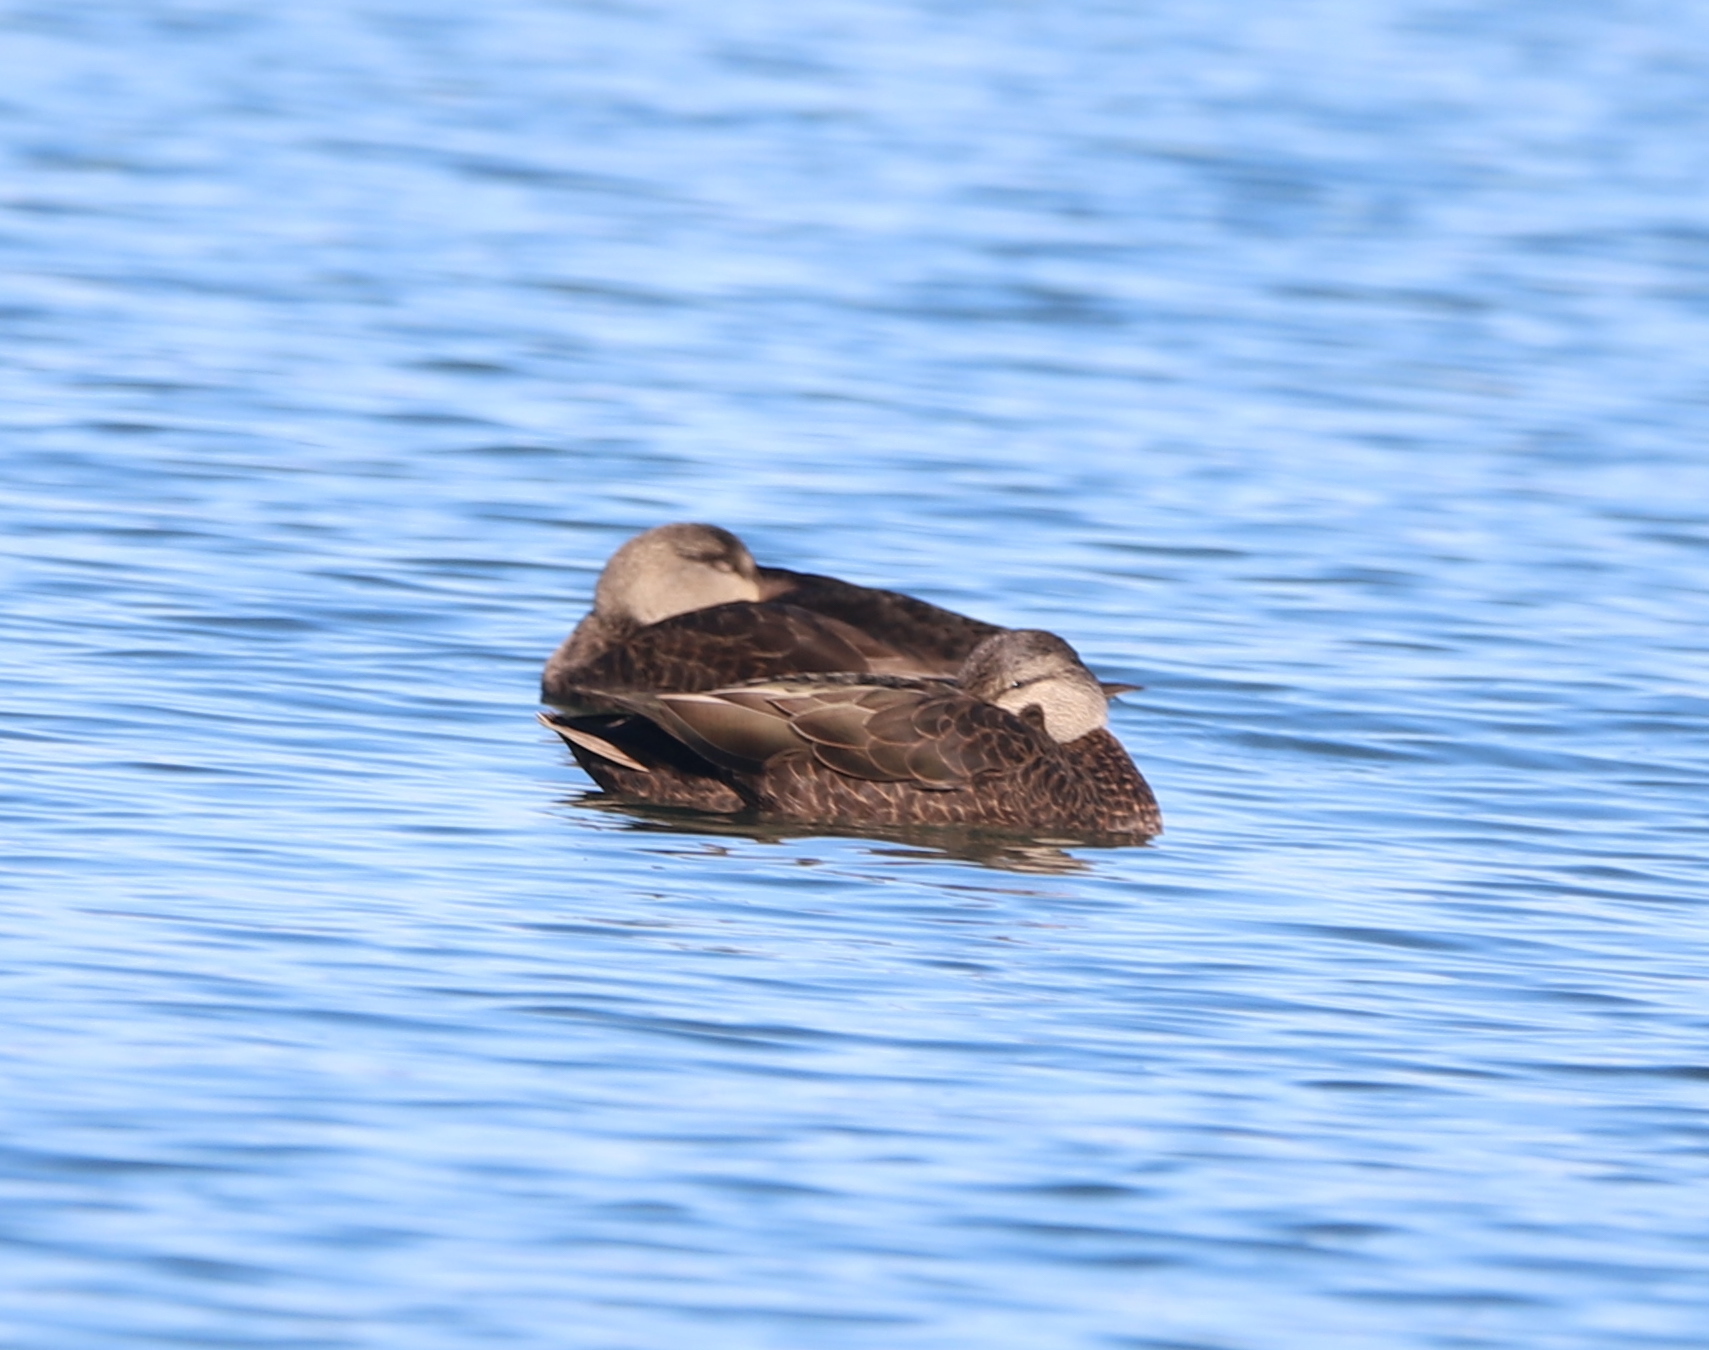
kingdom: Animalia
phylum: Chordata
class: Aves
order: Anseriformes
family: Anatidae
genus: Anas
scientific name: Anas rubripes
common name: American black duck
